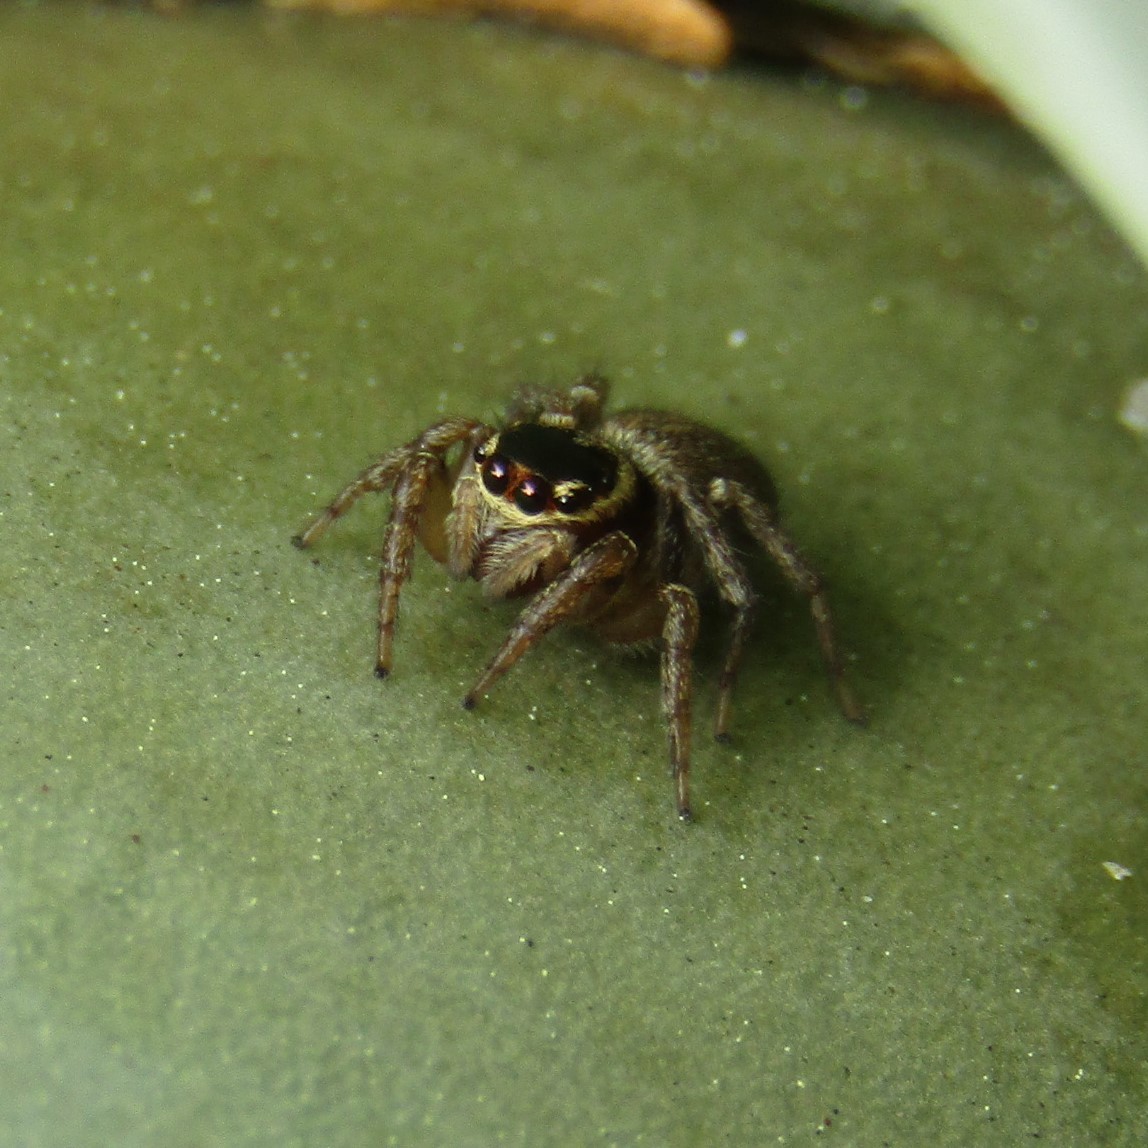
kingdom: Animalia
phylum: Arthropoda
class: Arachnida
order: Araneae
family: Salticidae
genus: Maratus
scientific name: Maratus griseus
